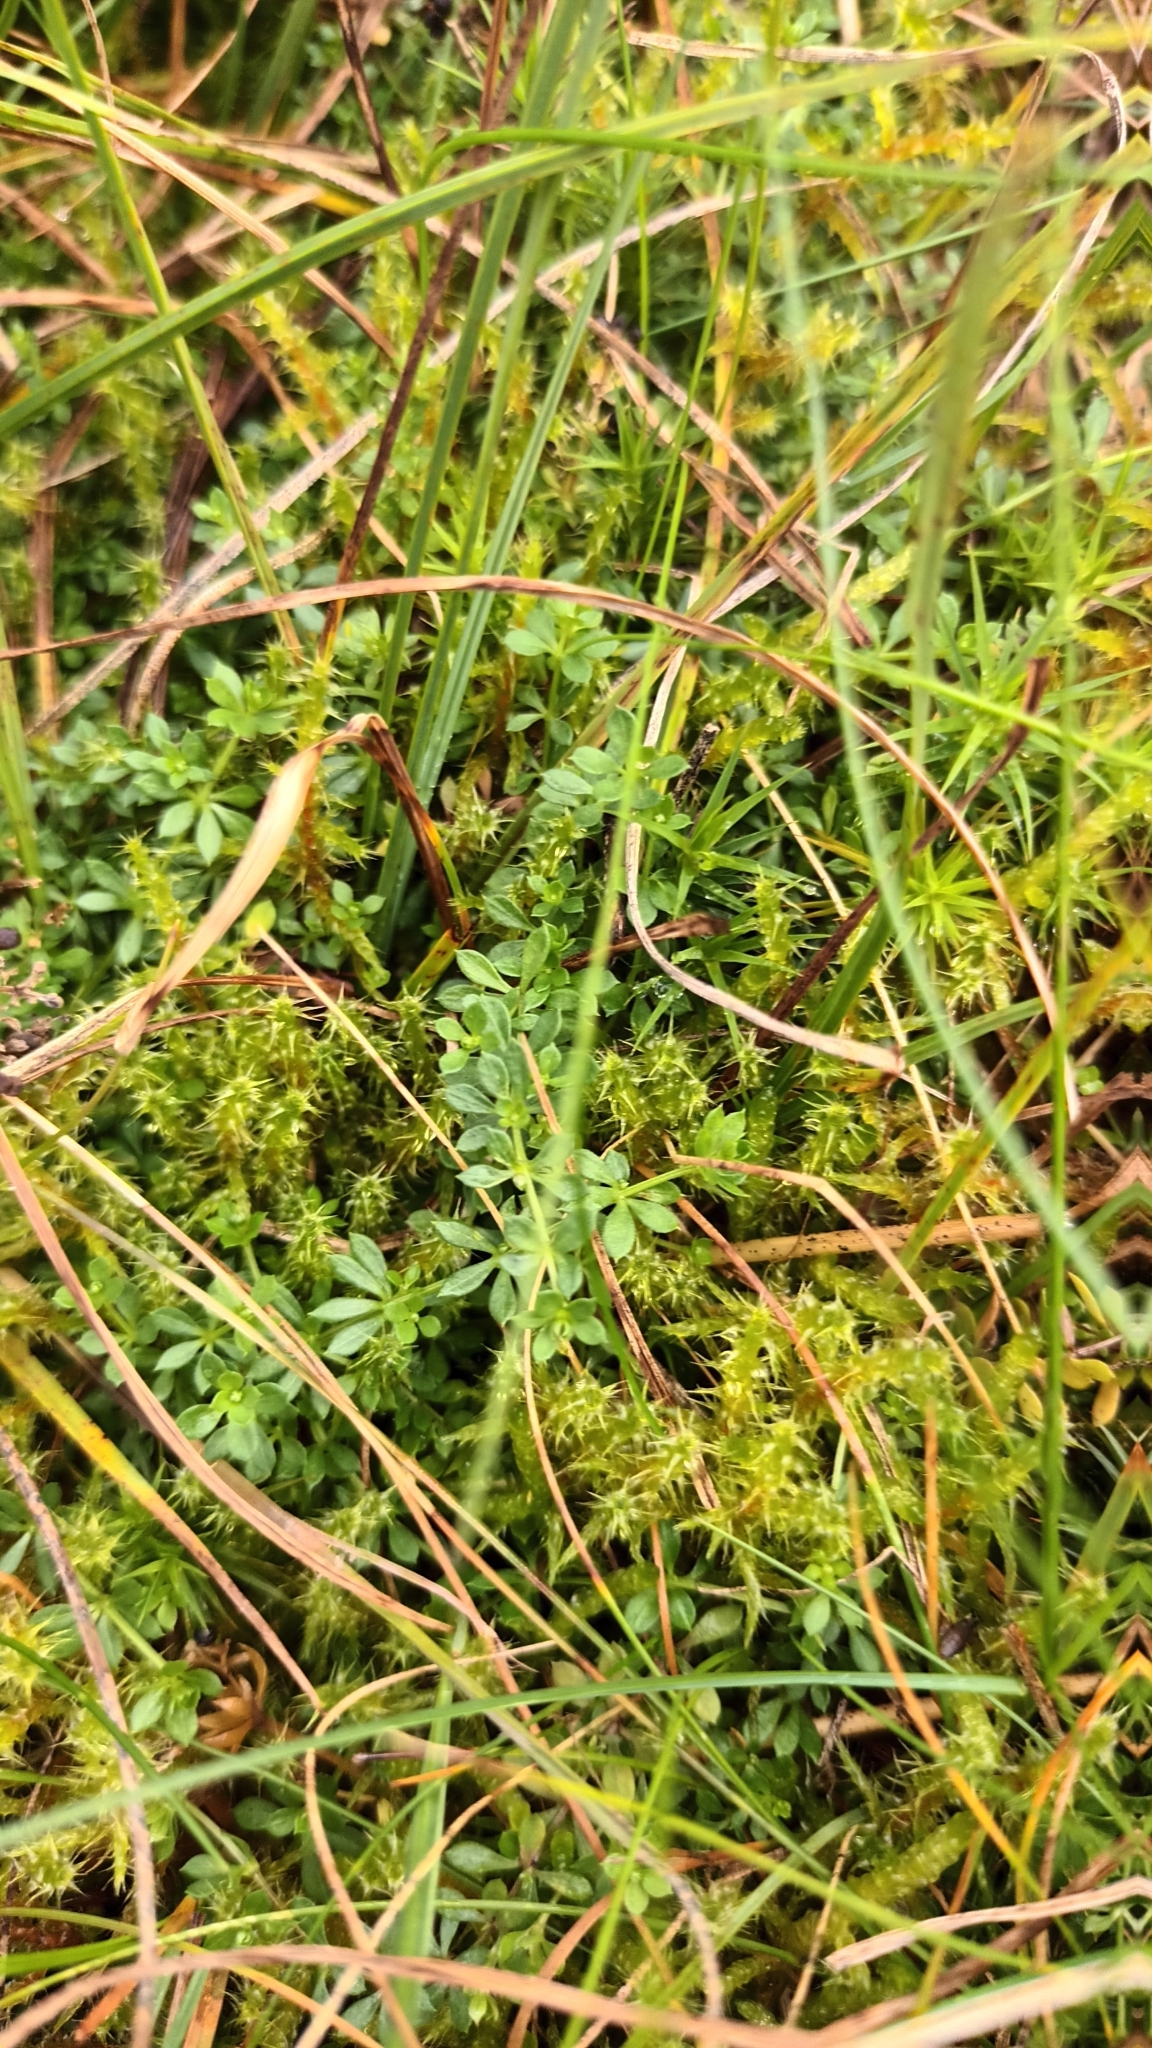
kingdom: Plantae
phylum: Tracheophyta
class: Magnoliopsida
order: Gentianales
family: Rubiaceae
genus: Galium
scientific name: Galium saxatile
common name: Heath bedstraw
